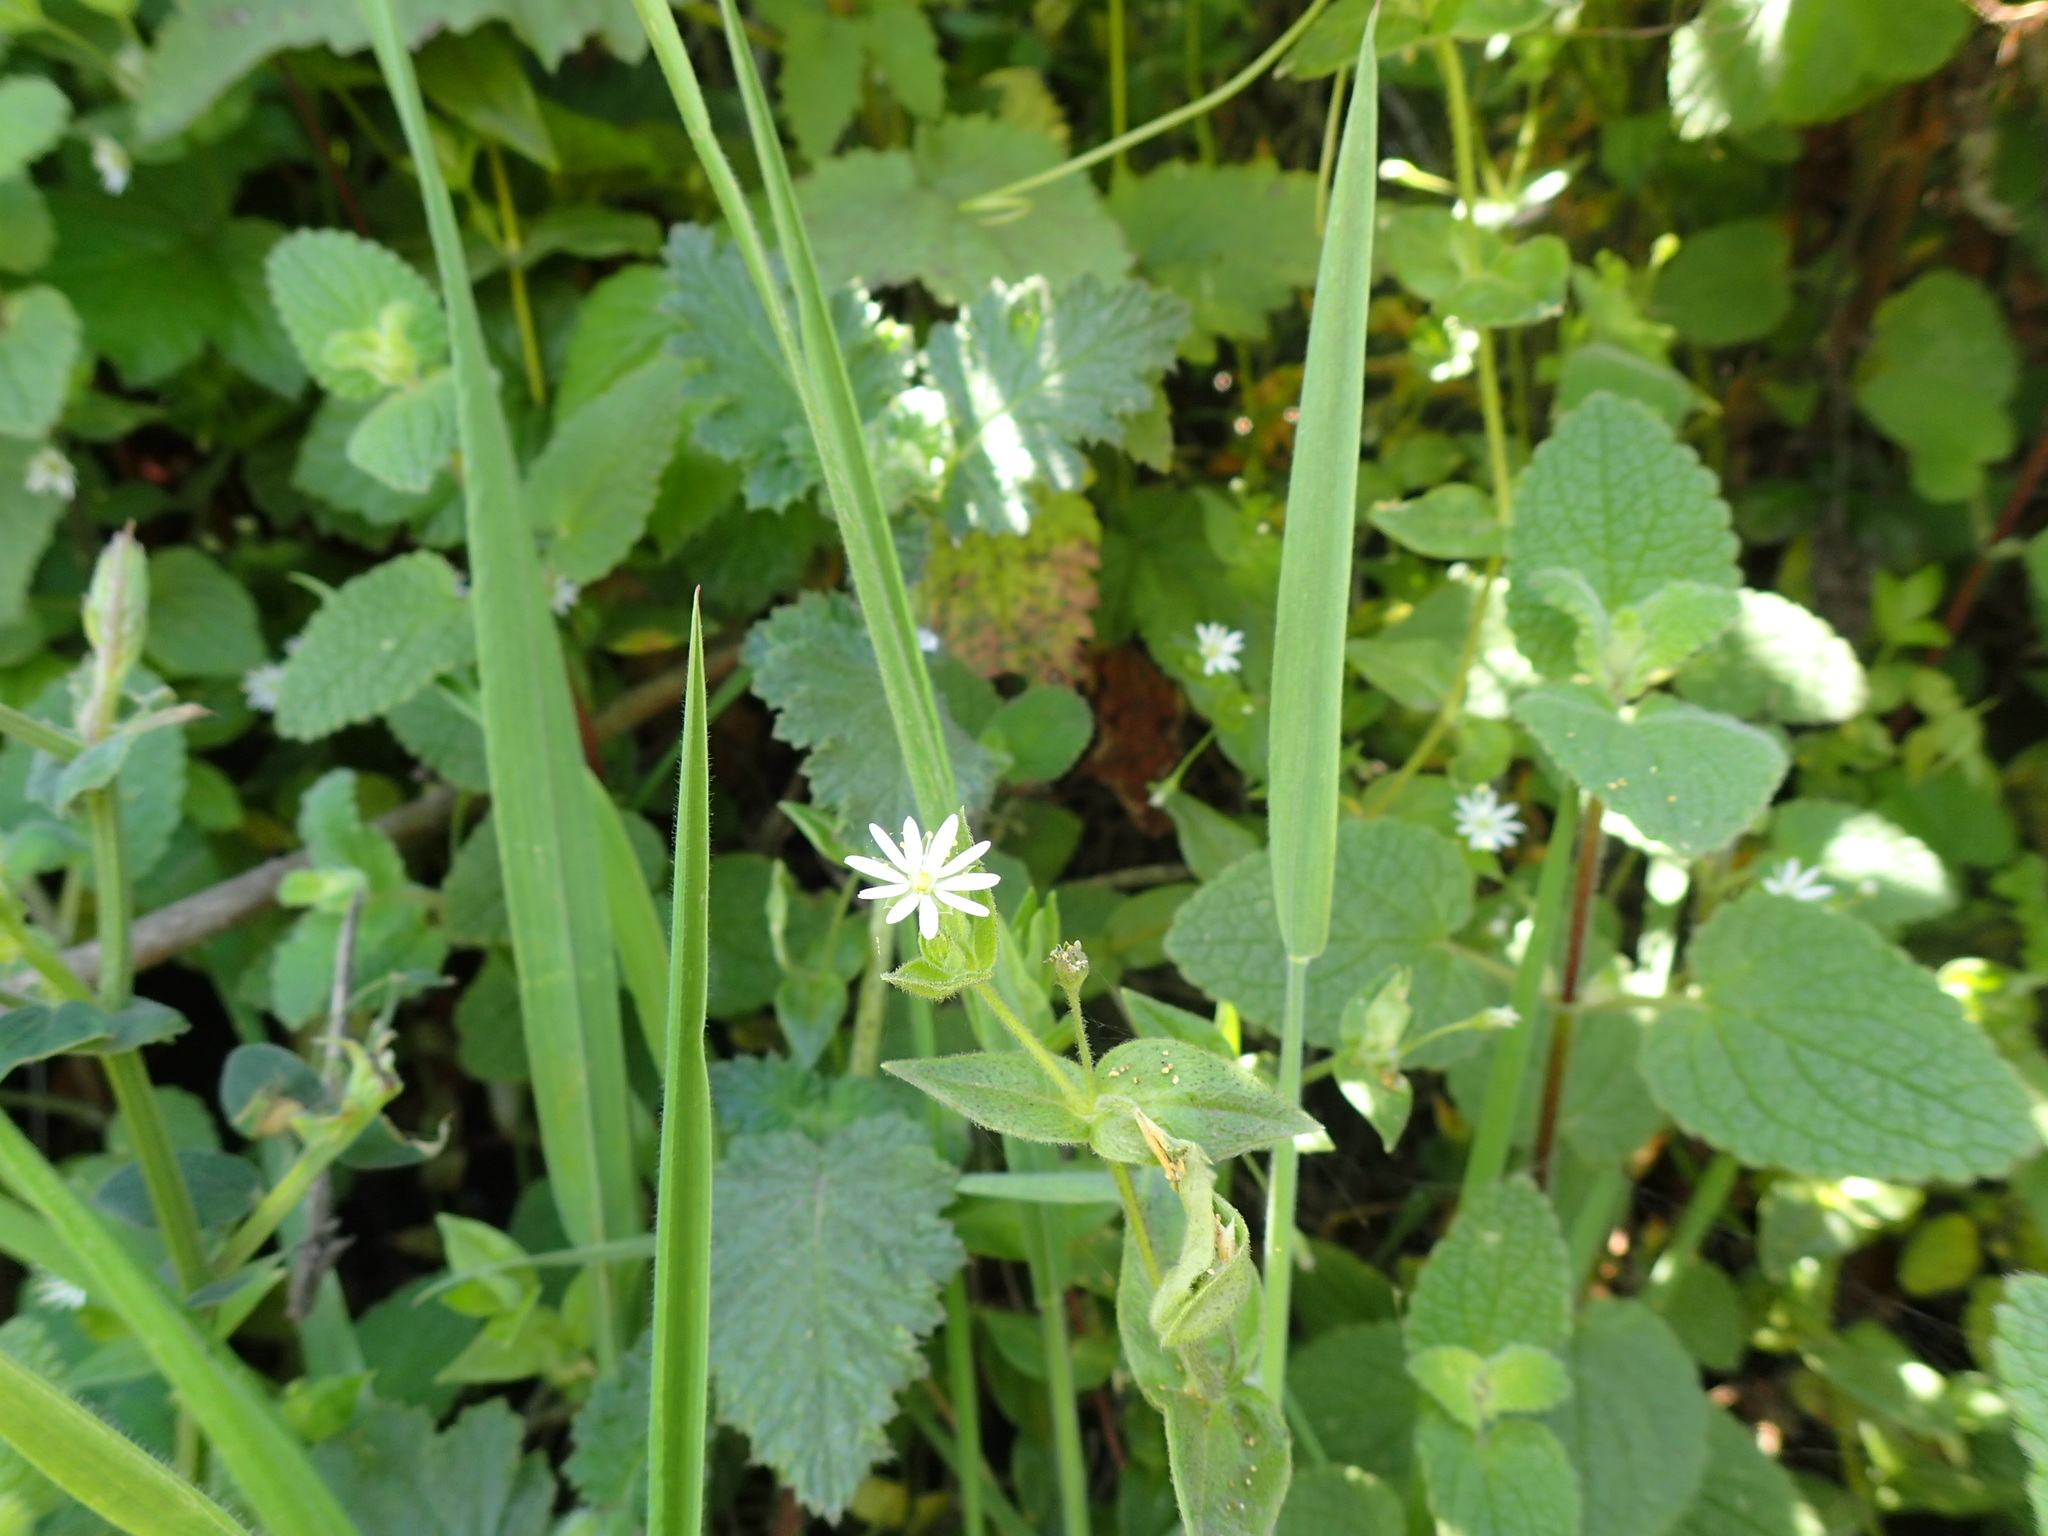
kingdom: Plantae
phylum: Tracheophyta
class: Magnoliopsida
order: Caryophyllales
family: Caryophyllaceae
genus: Stellaria
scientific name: Stellaria littoralis
